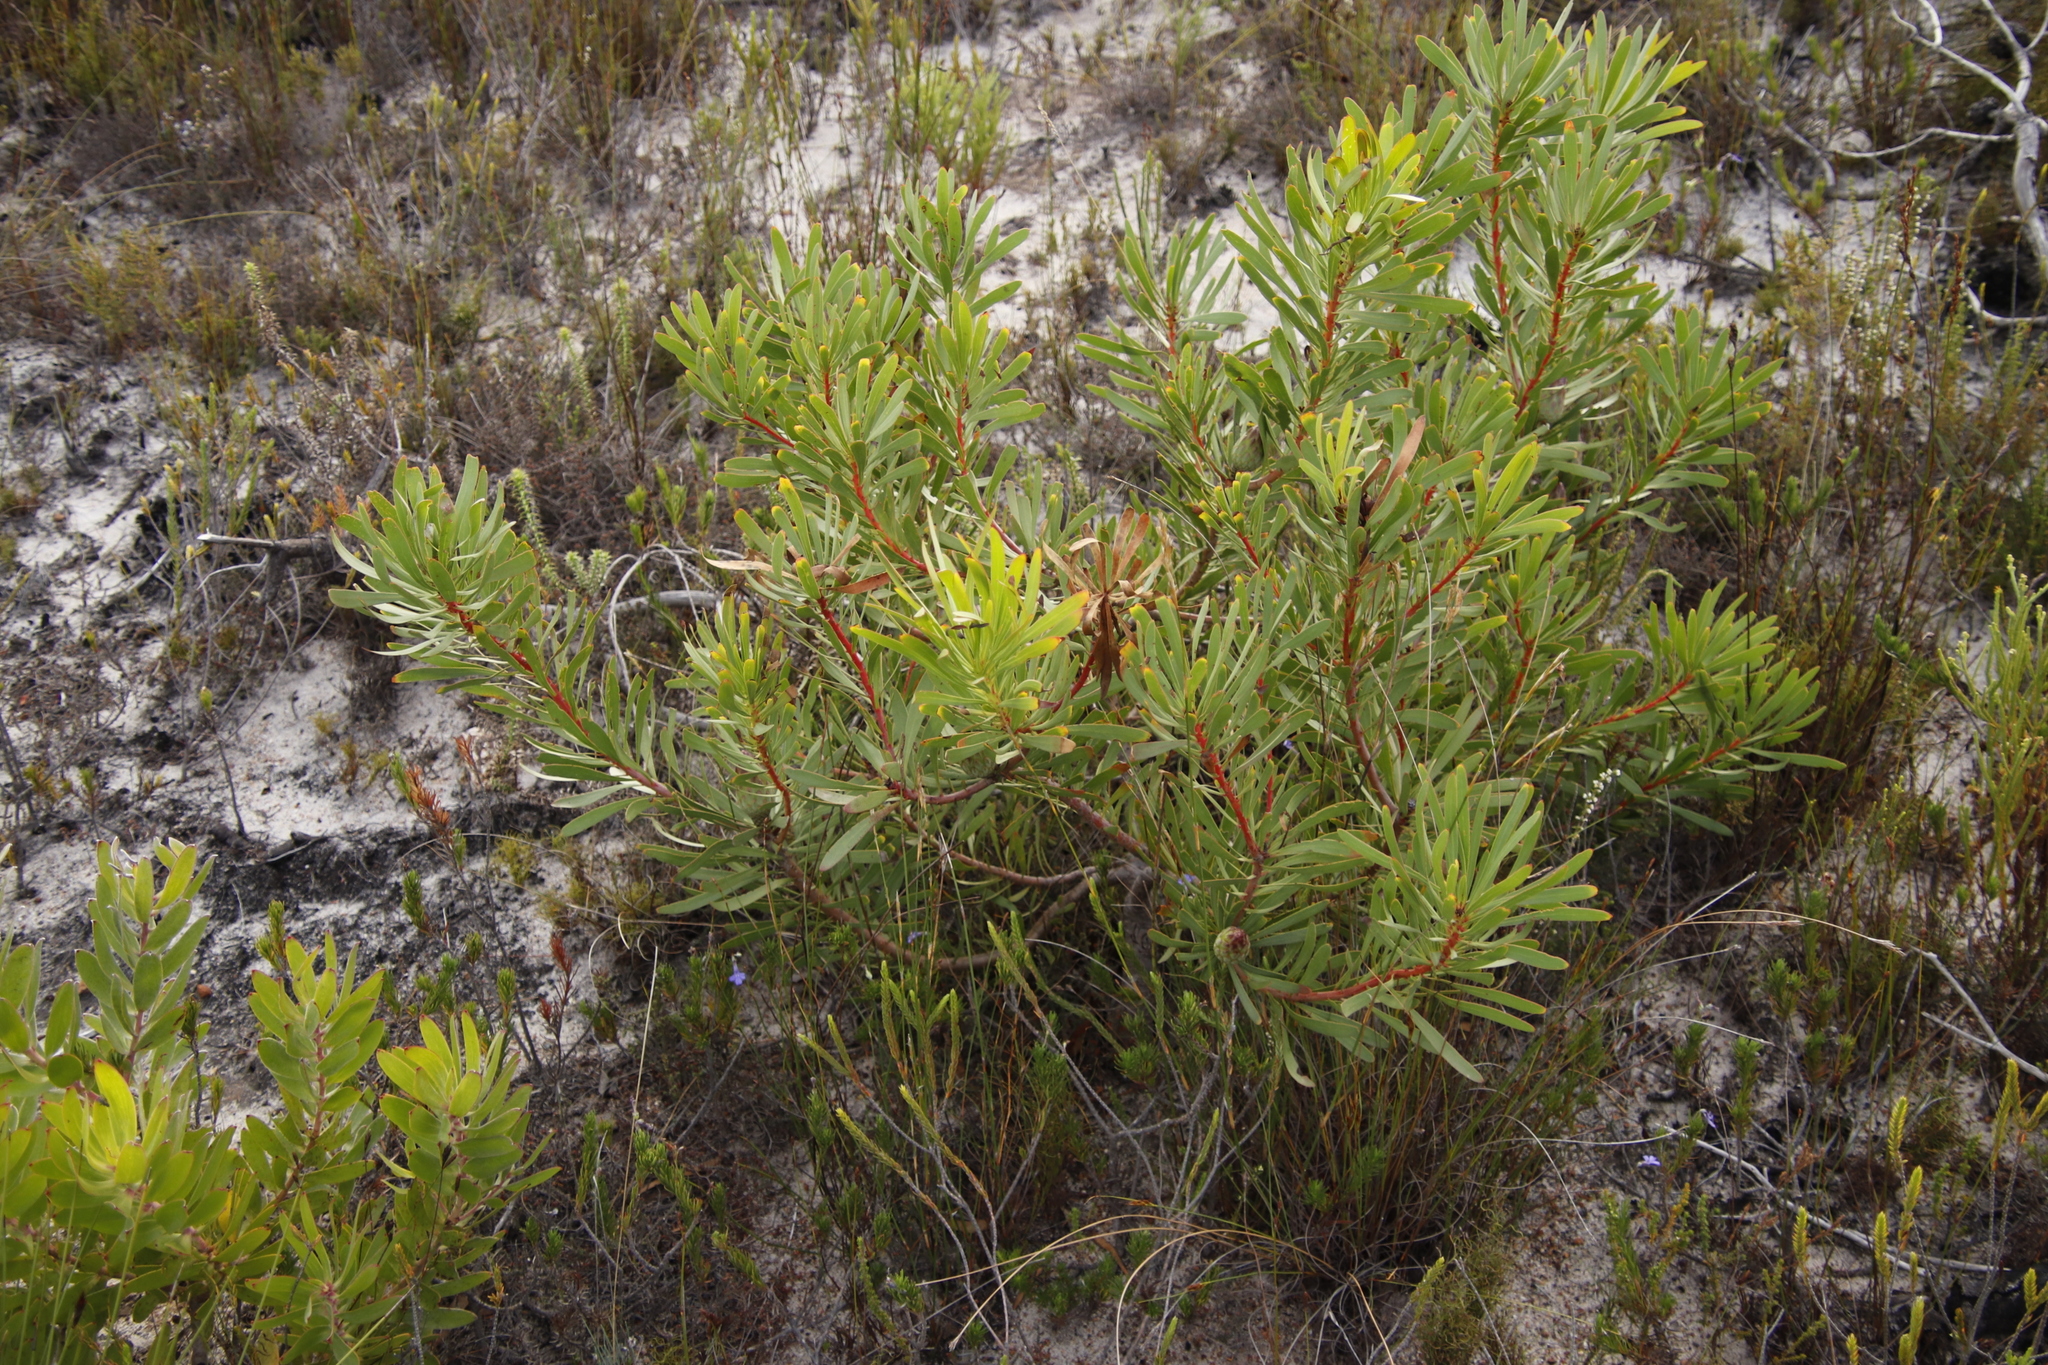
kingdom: Plantae
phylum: Tracheophyta
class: Magnoliopsida
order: Proteales
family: Proteaceae
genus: Protea
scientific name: Protea repens
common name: Sugarbush
